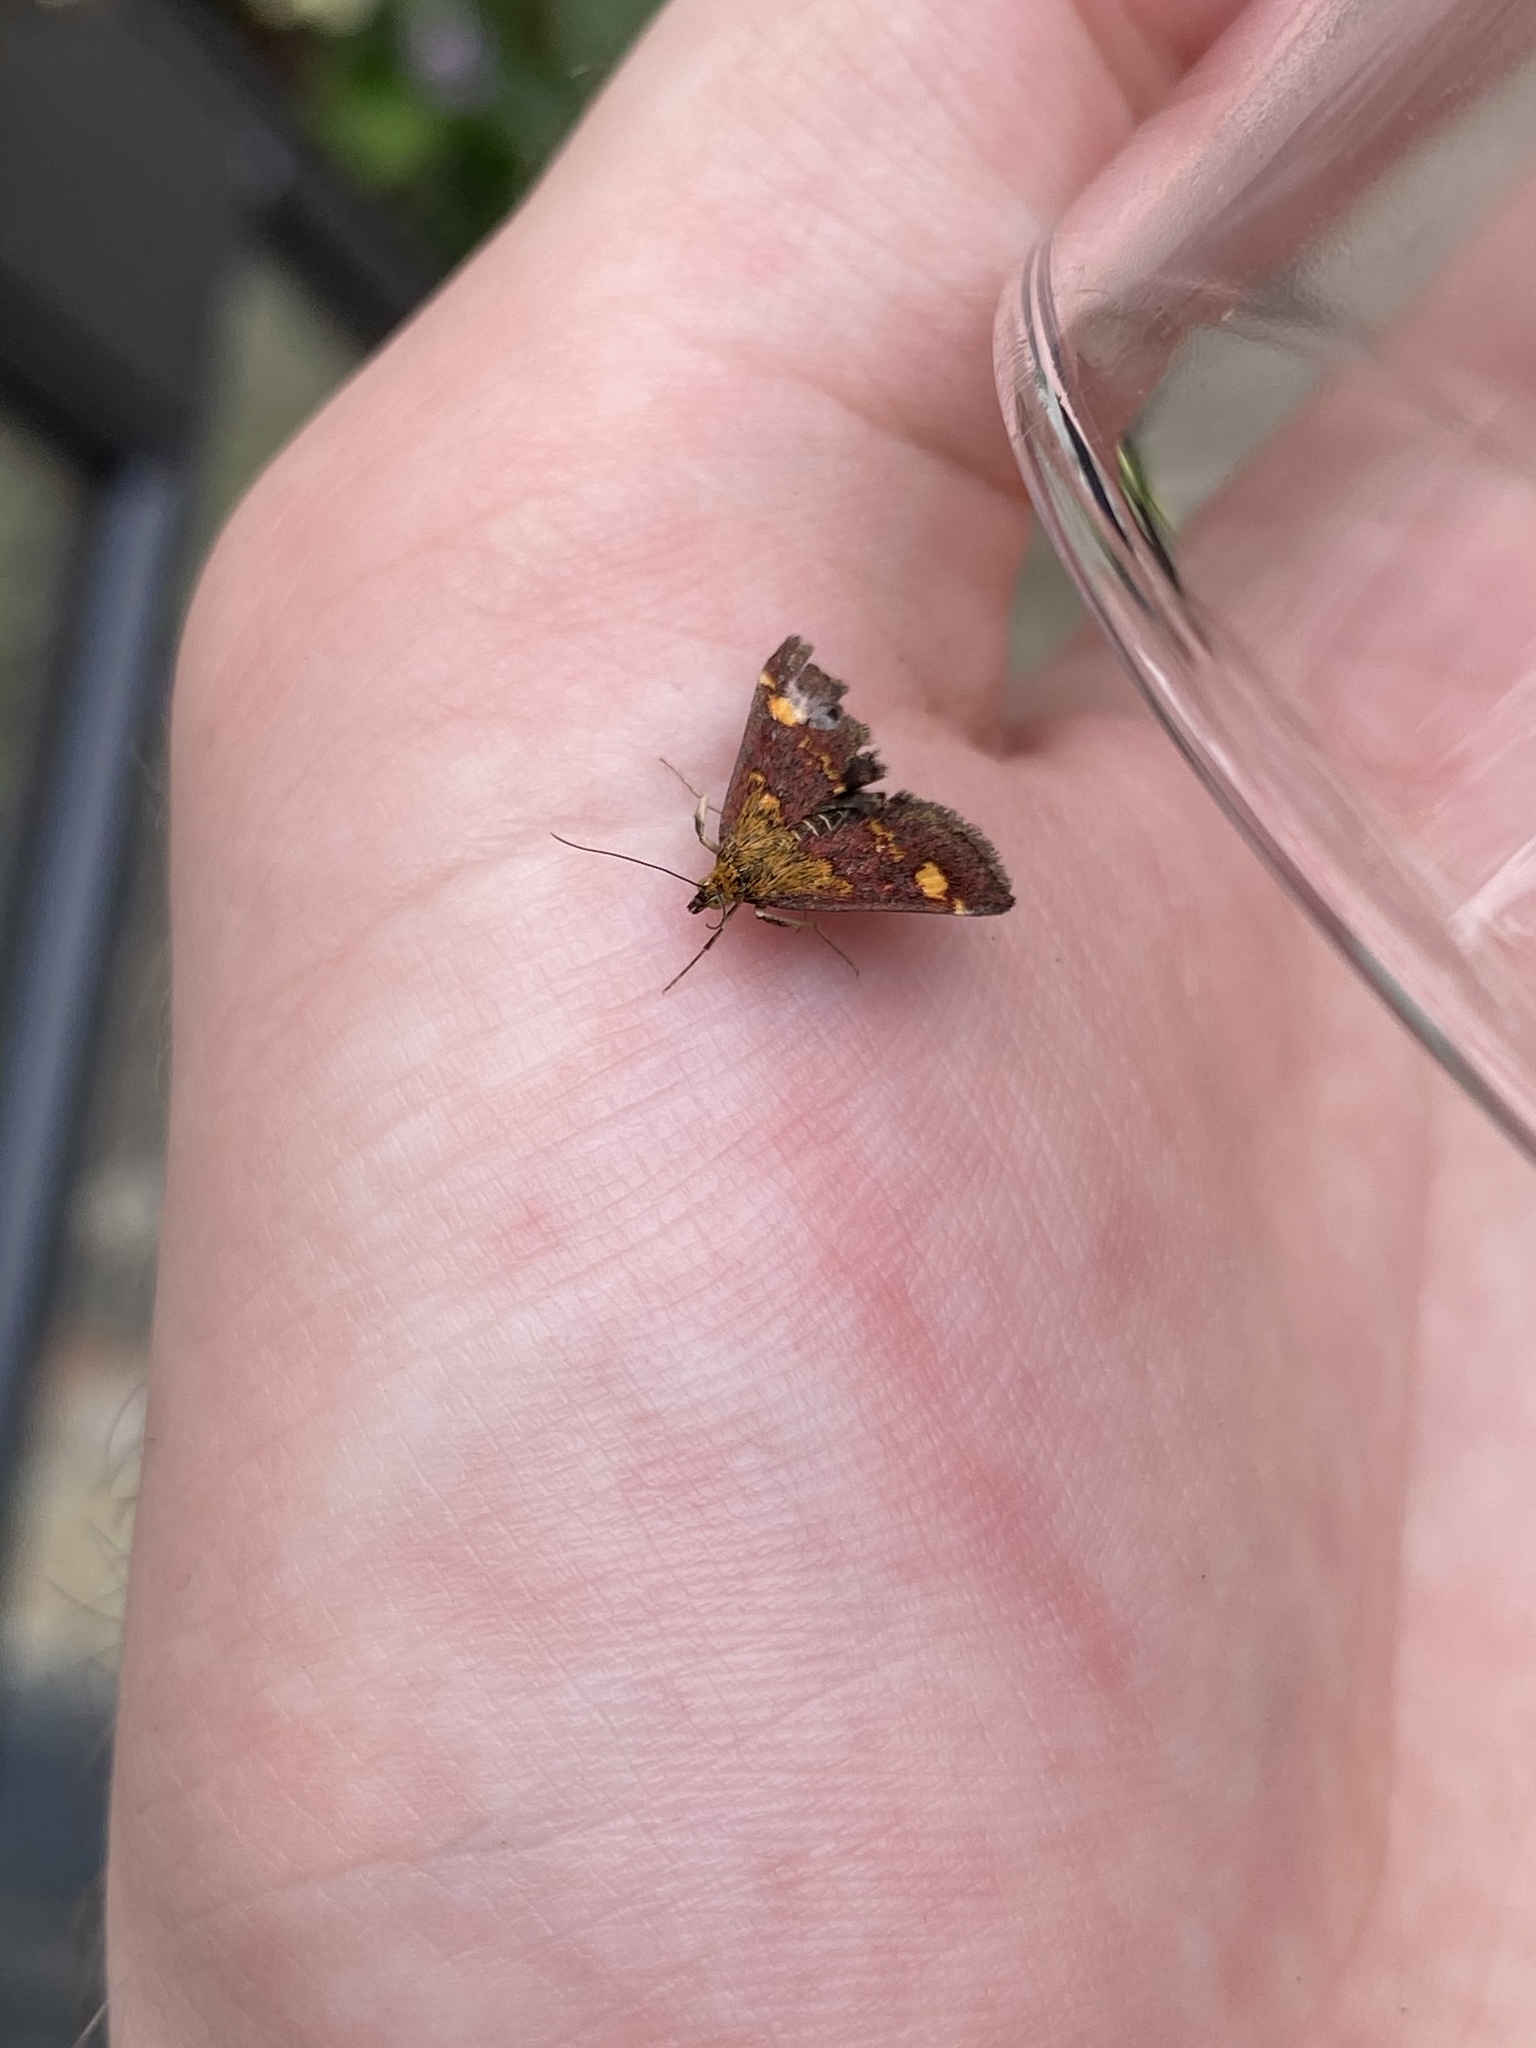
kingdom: Animalia
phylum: Arthropoda
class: Insecta
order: Lepidoptera
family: Crambidae
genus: Pyrausta
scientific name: Pyrausta aurata
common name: Small purple & gold
